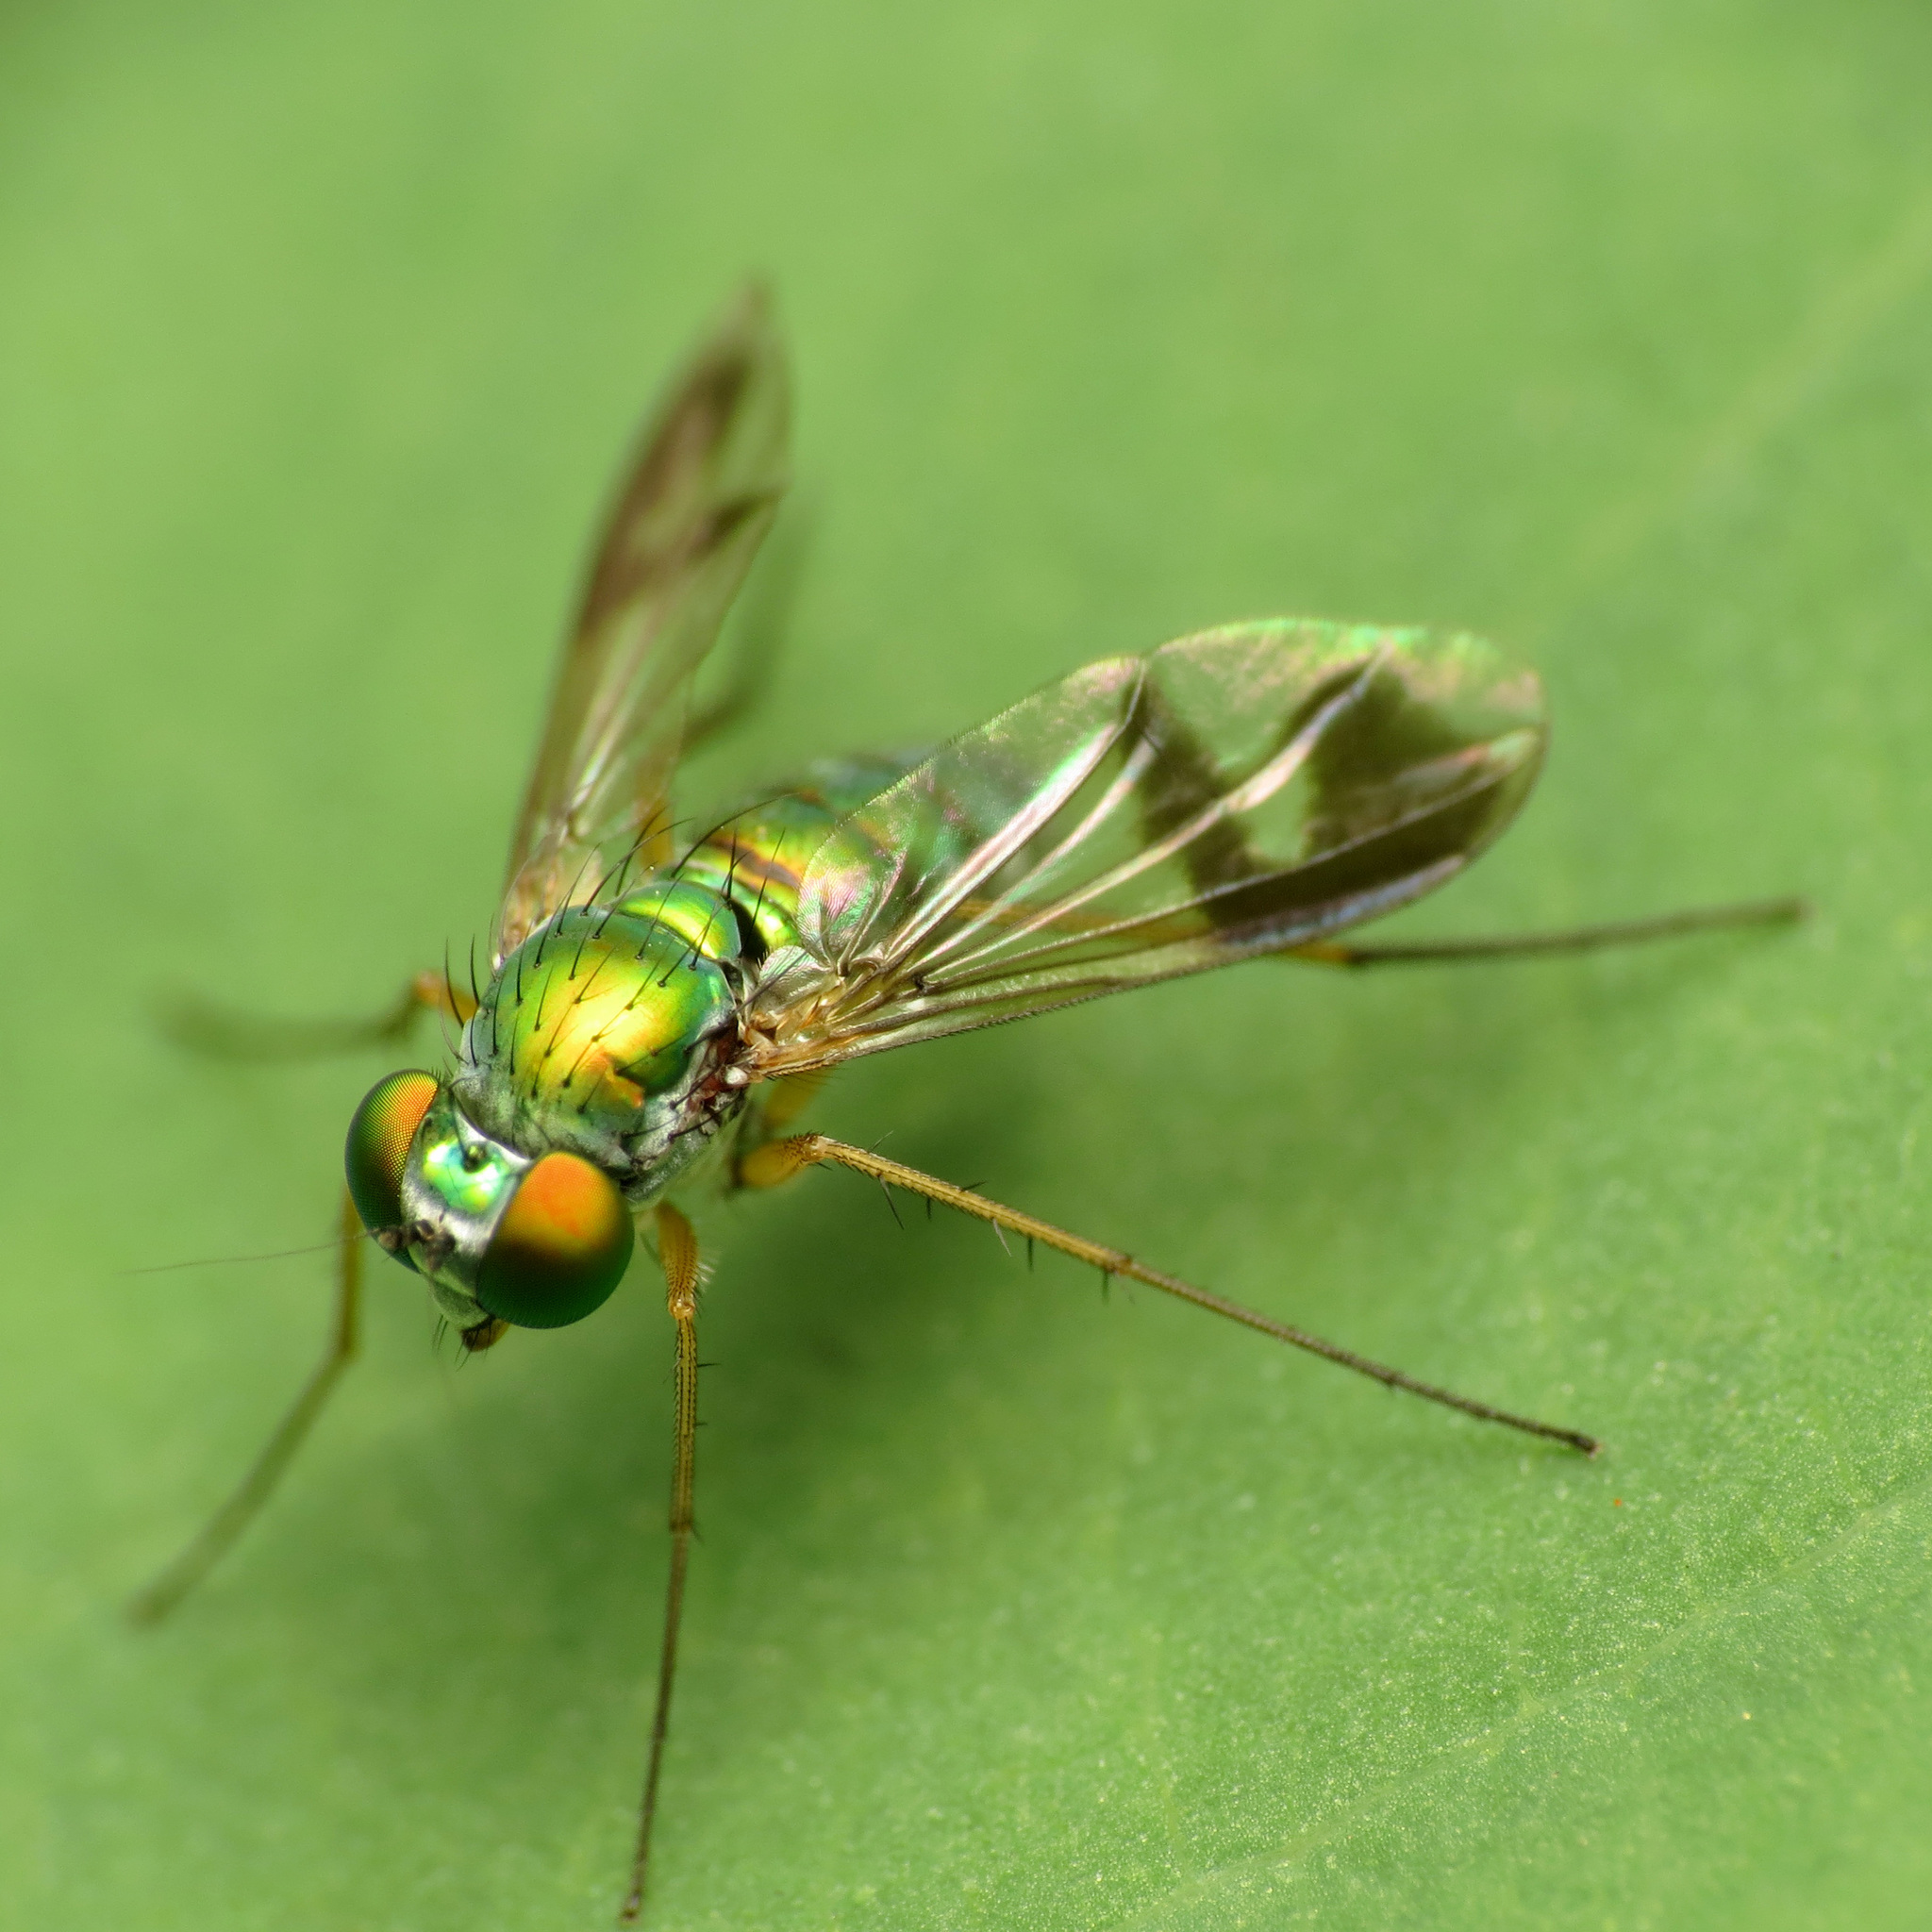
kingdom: Animalia
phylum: Arthropoda
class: Insecta
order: Diptera
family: Dolichopodidae
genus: Condylostylus
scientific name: Condylostylus
